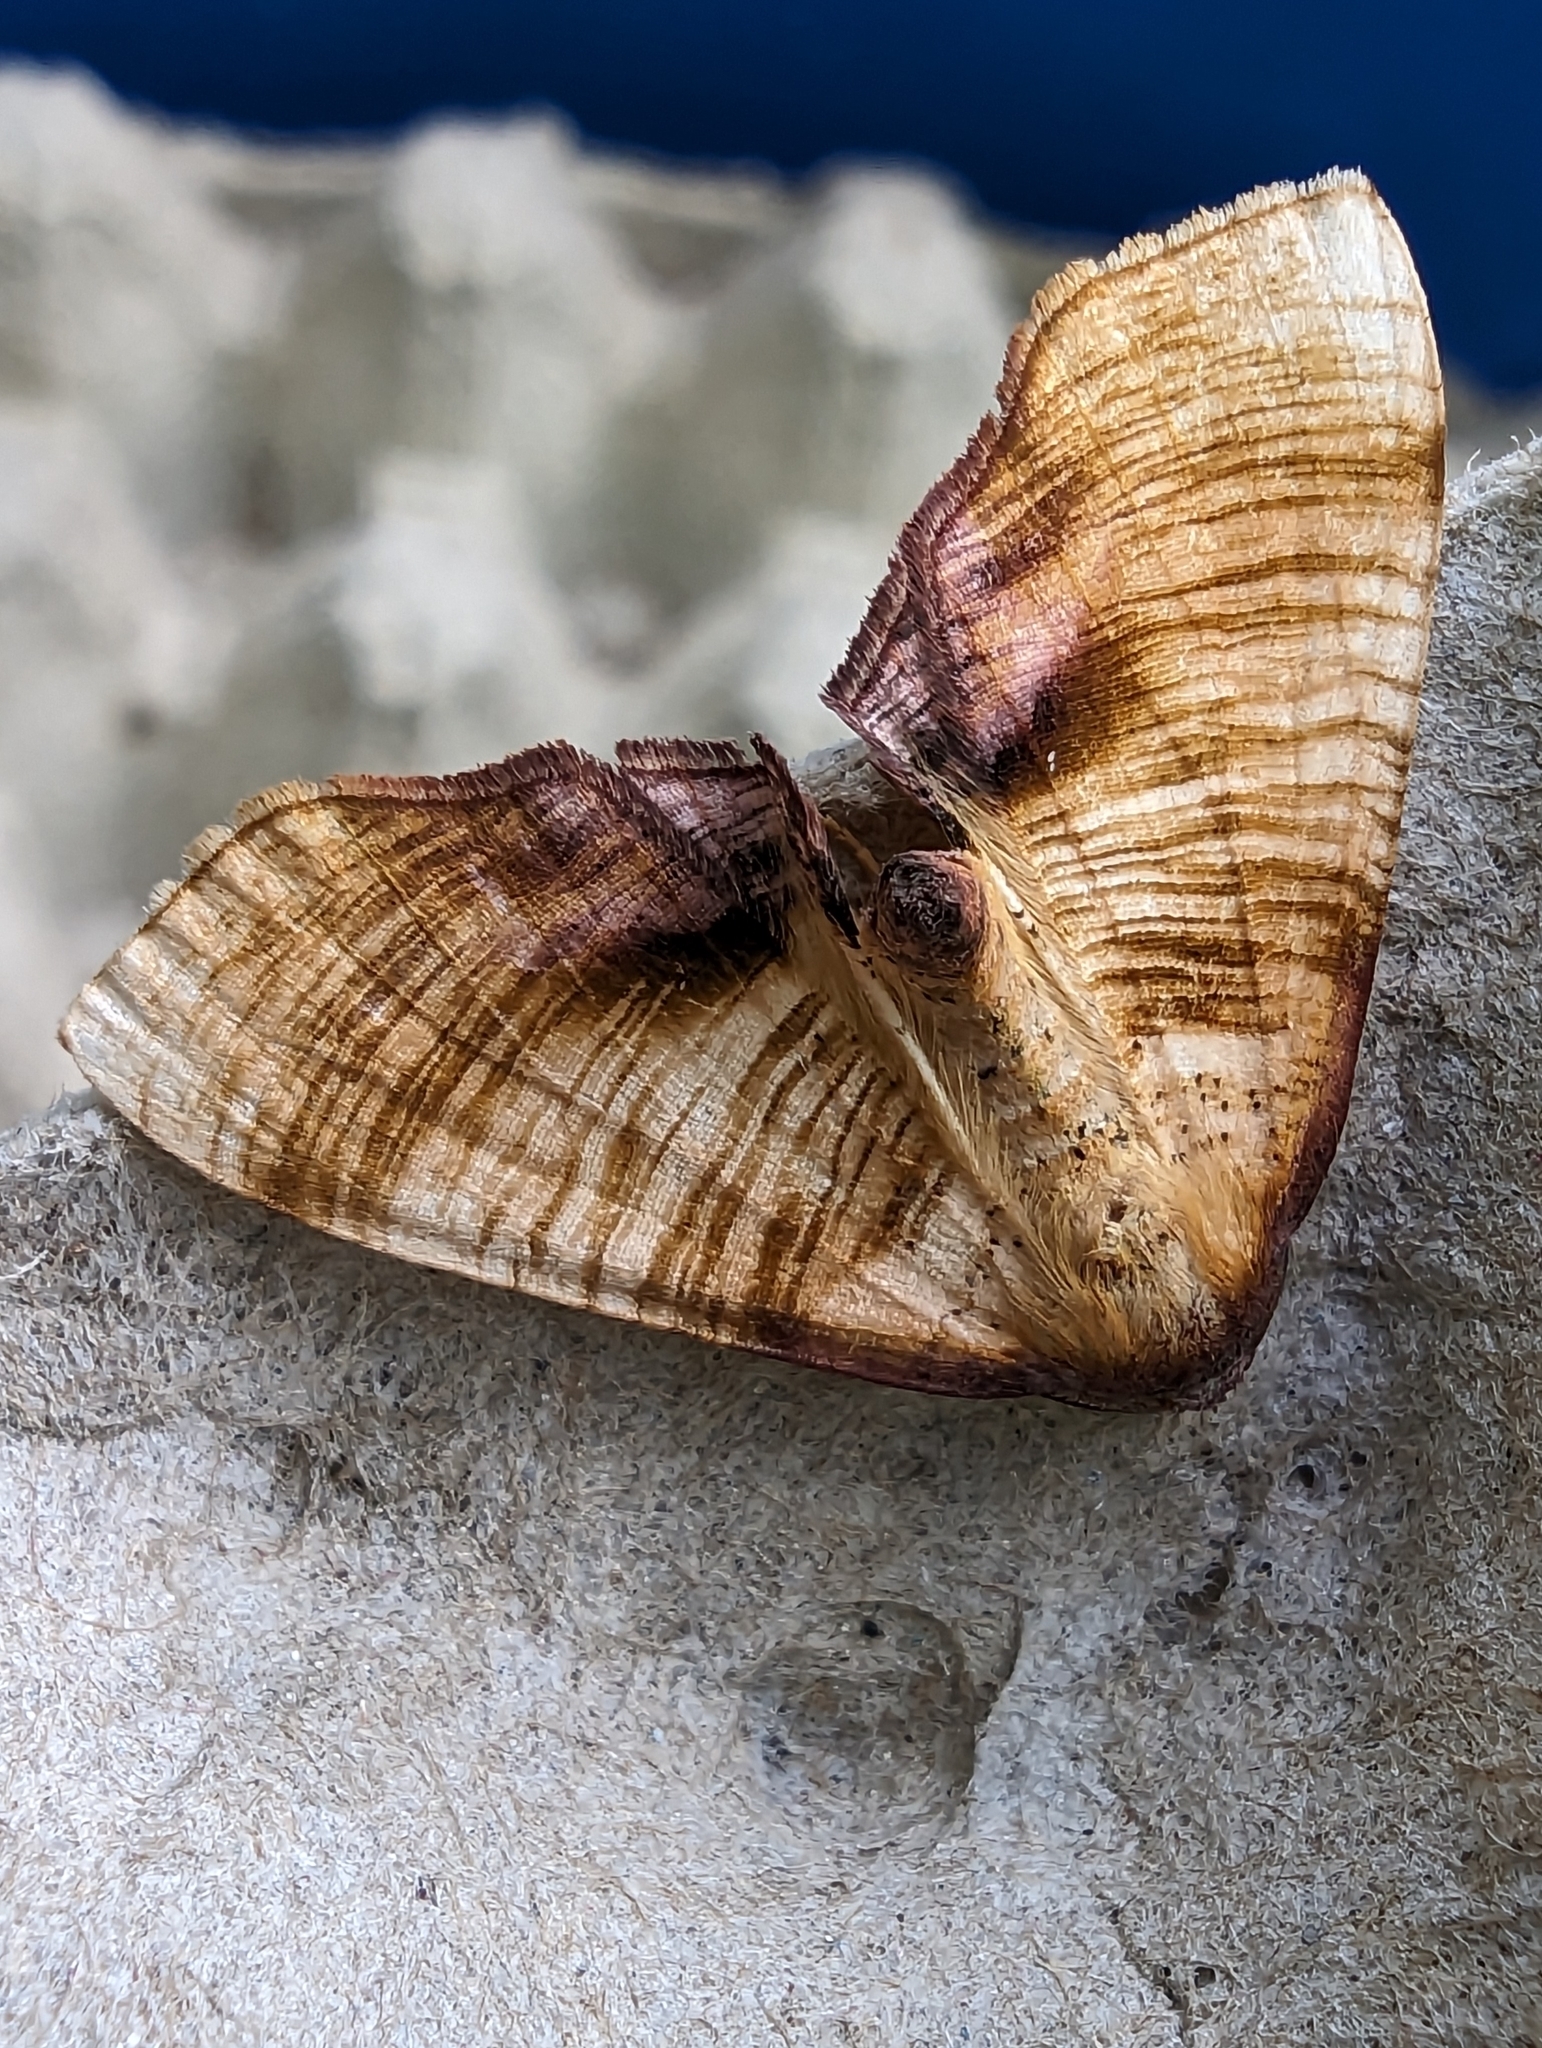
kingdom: Animalia
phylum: Arthropoda
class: Insecta
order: Lepidoptera
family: Geometridae
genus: Plagodis
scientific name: Plagodis dolabraria
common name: Scorched wing
